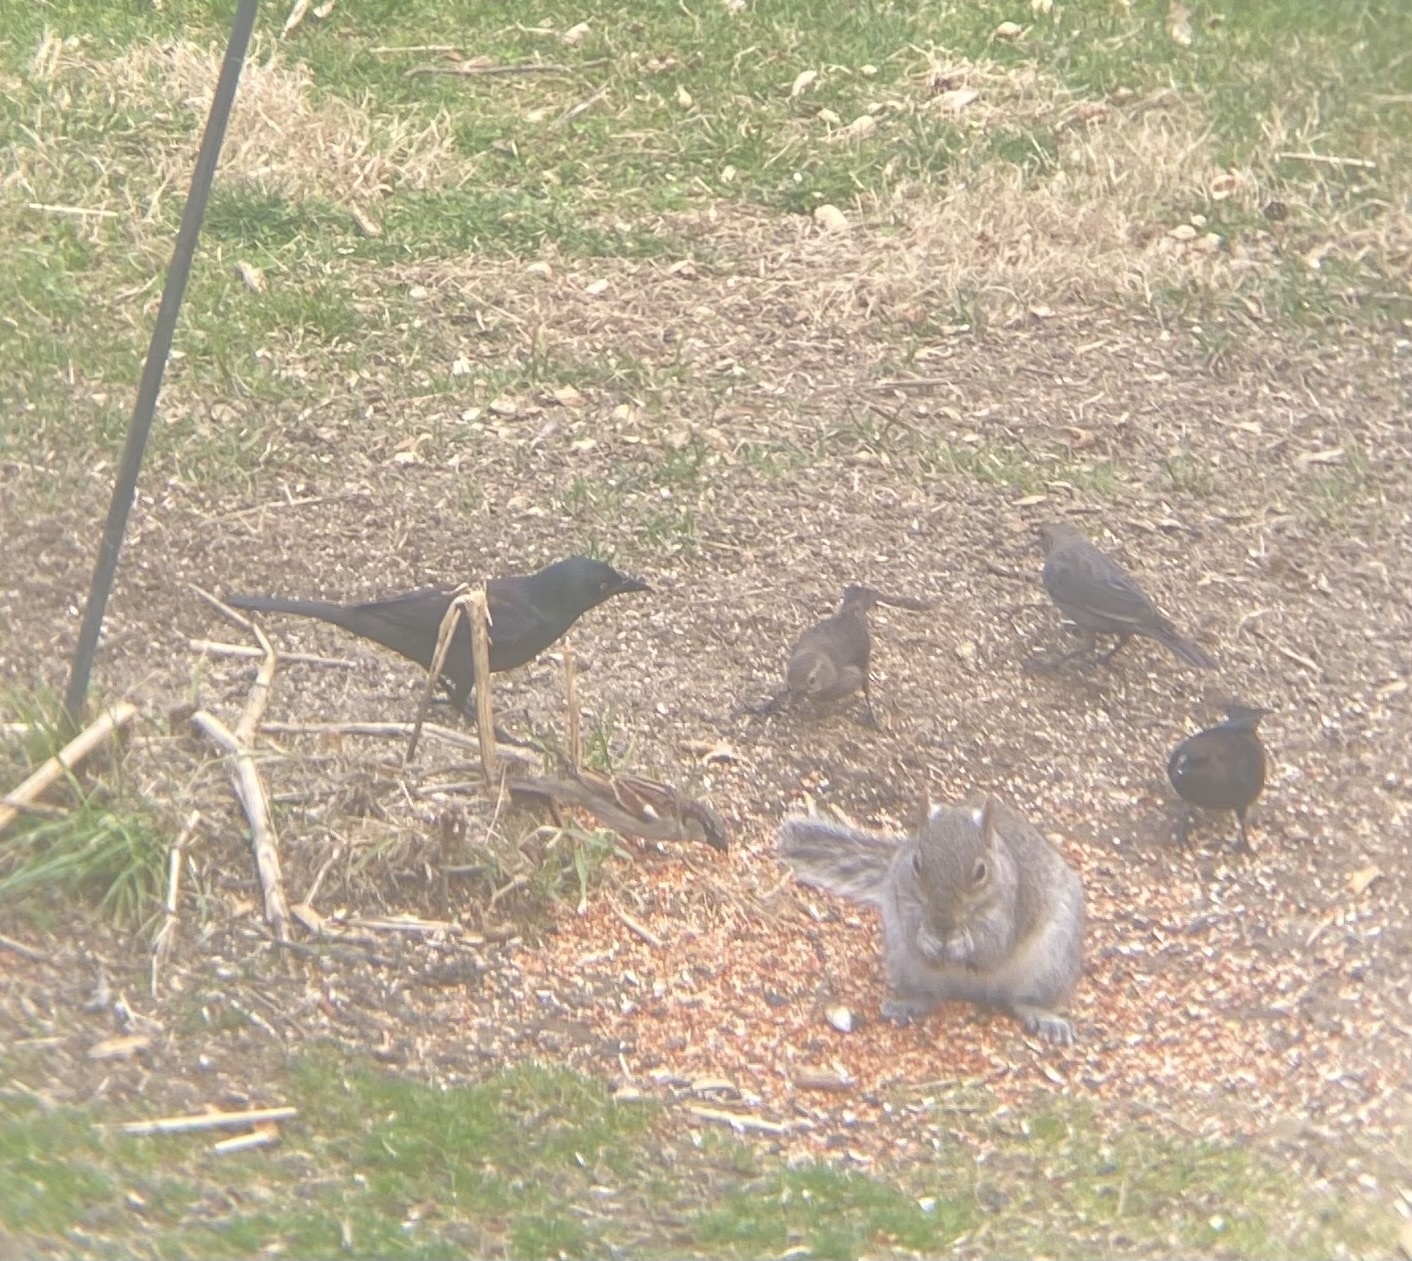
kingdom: Animalia
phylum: Chordata
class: Aves
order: Passeriformes
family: Icteridae
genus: Quiscalus
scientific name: Quiscalus quiscula
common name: Common grackle
